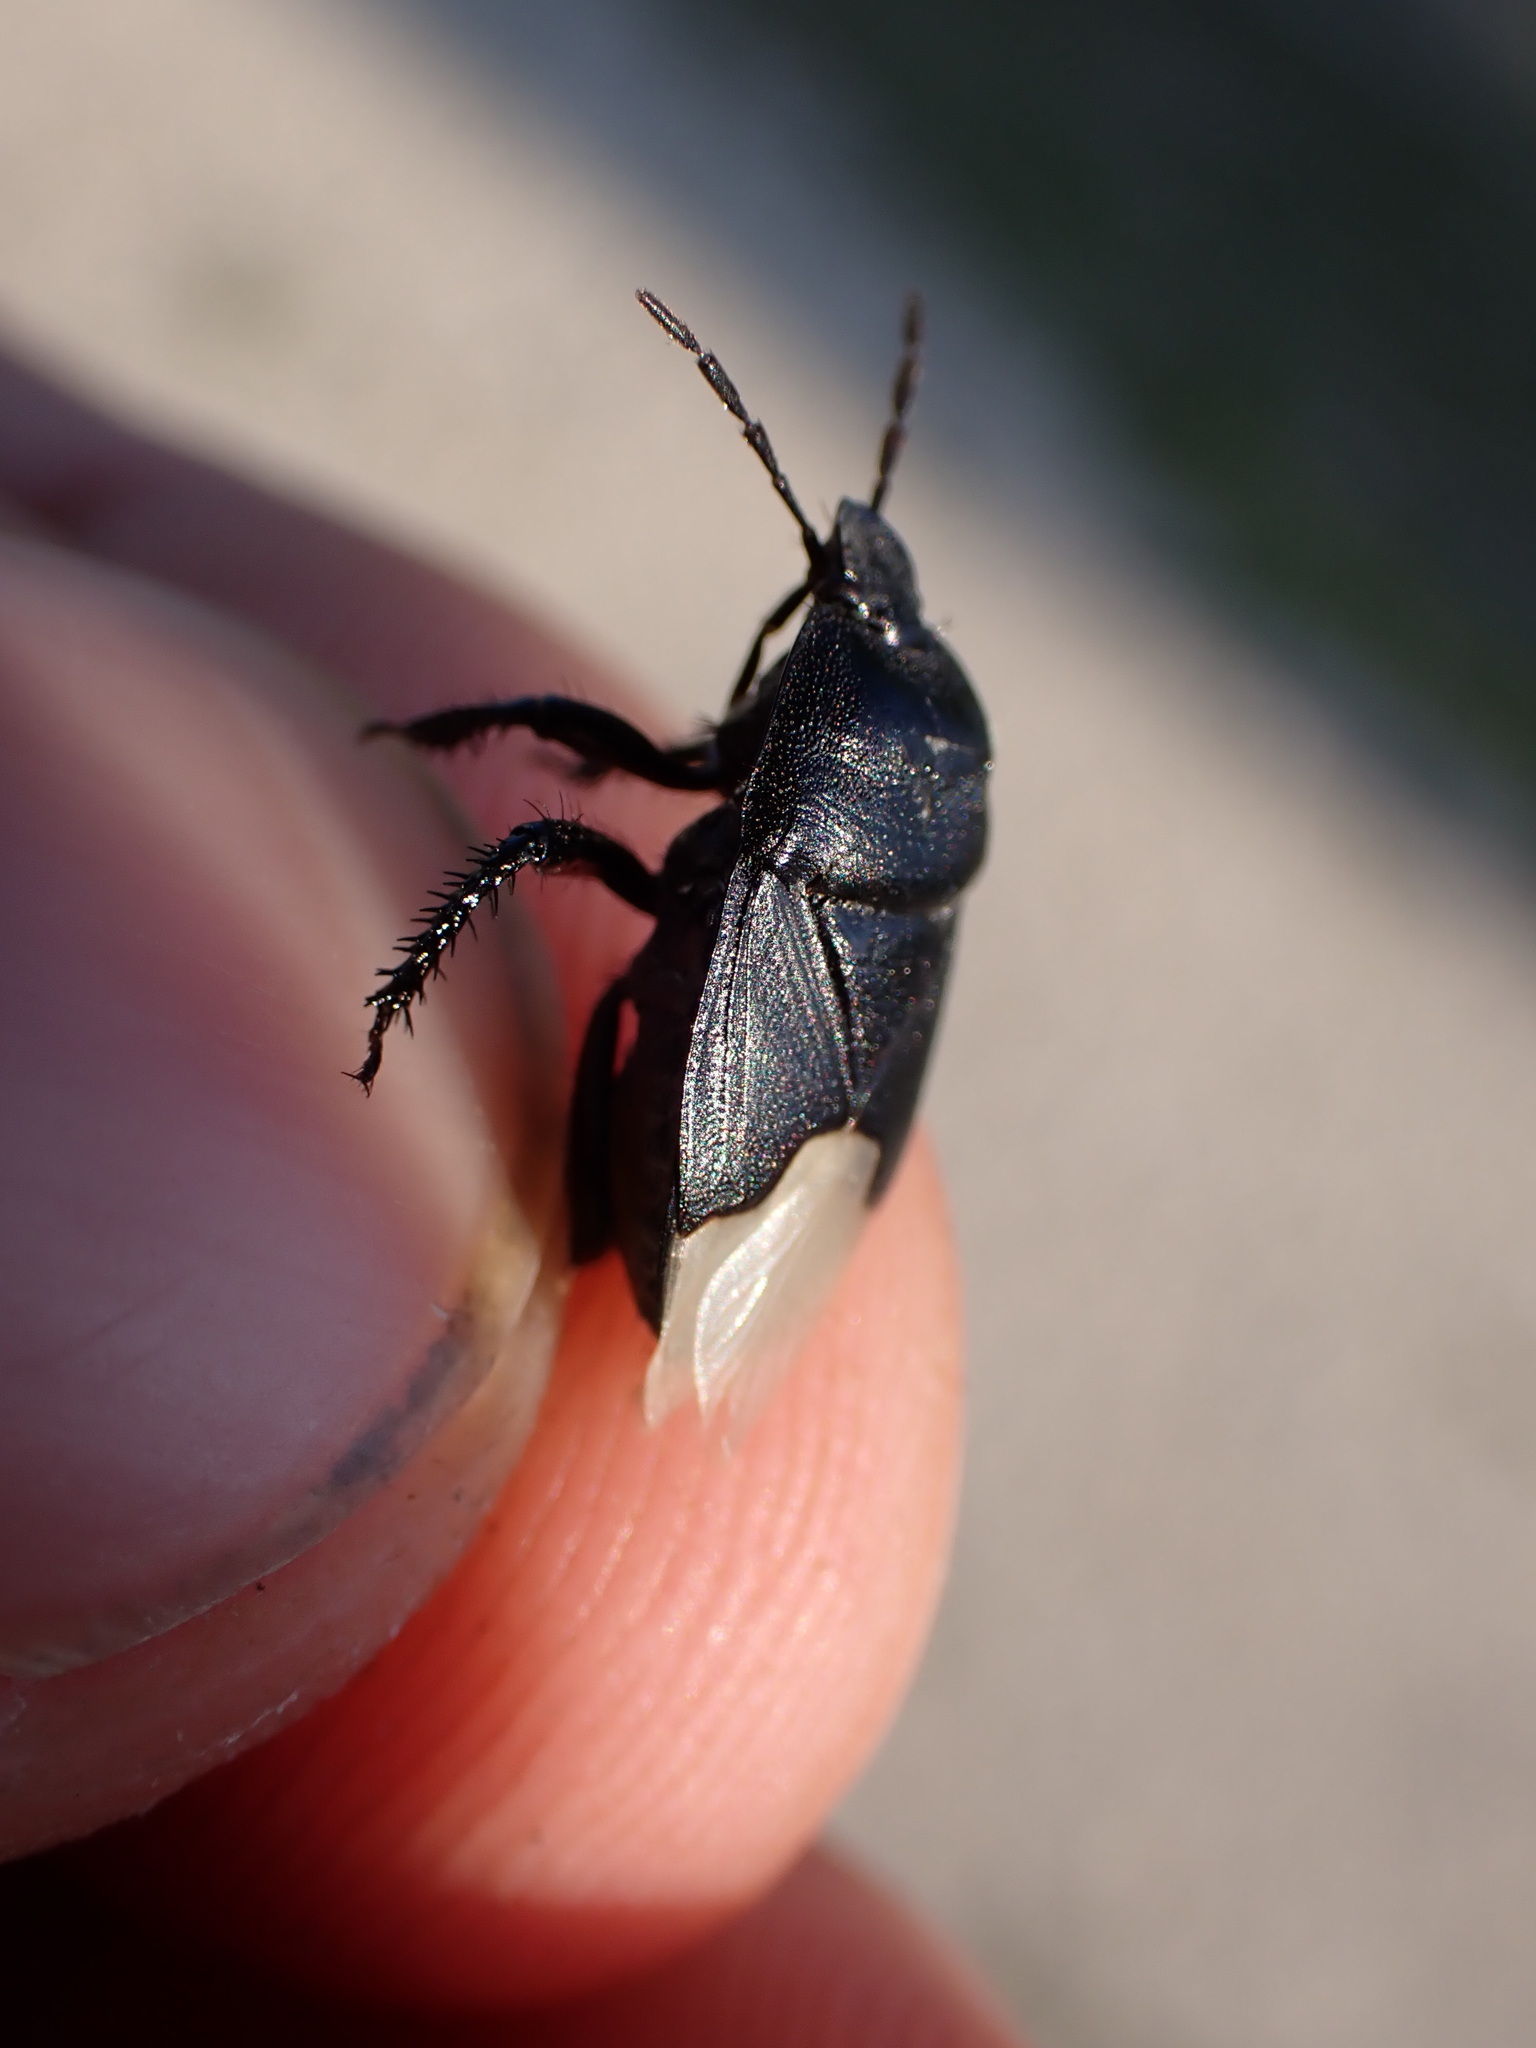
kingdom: Animalia
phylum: Arthropoda
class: Insecta
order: Hemiptera
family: Cydnidae
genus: Cydnus
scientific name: Cydnus aterrimus
